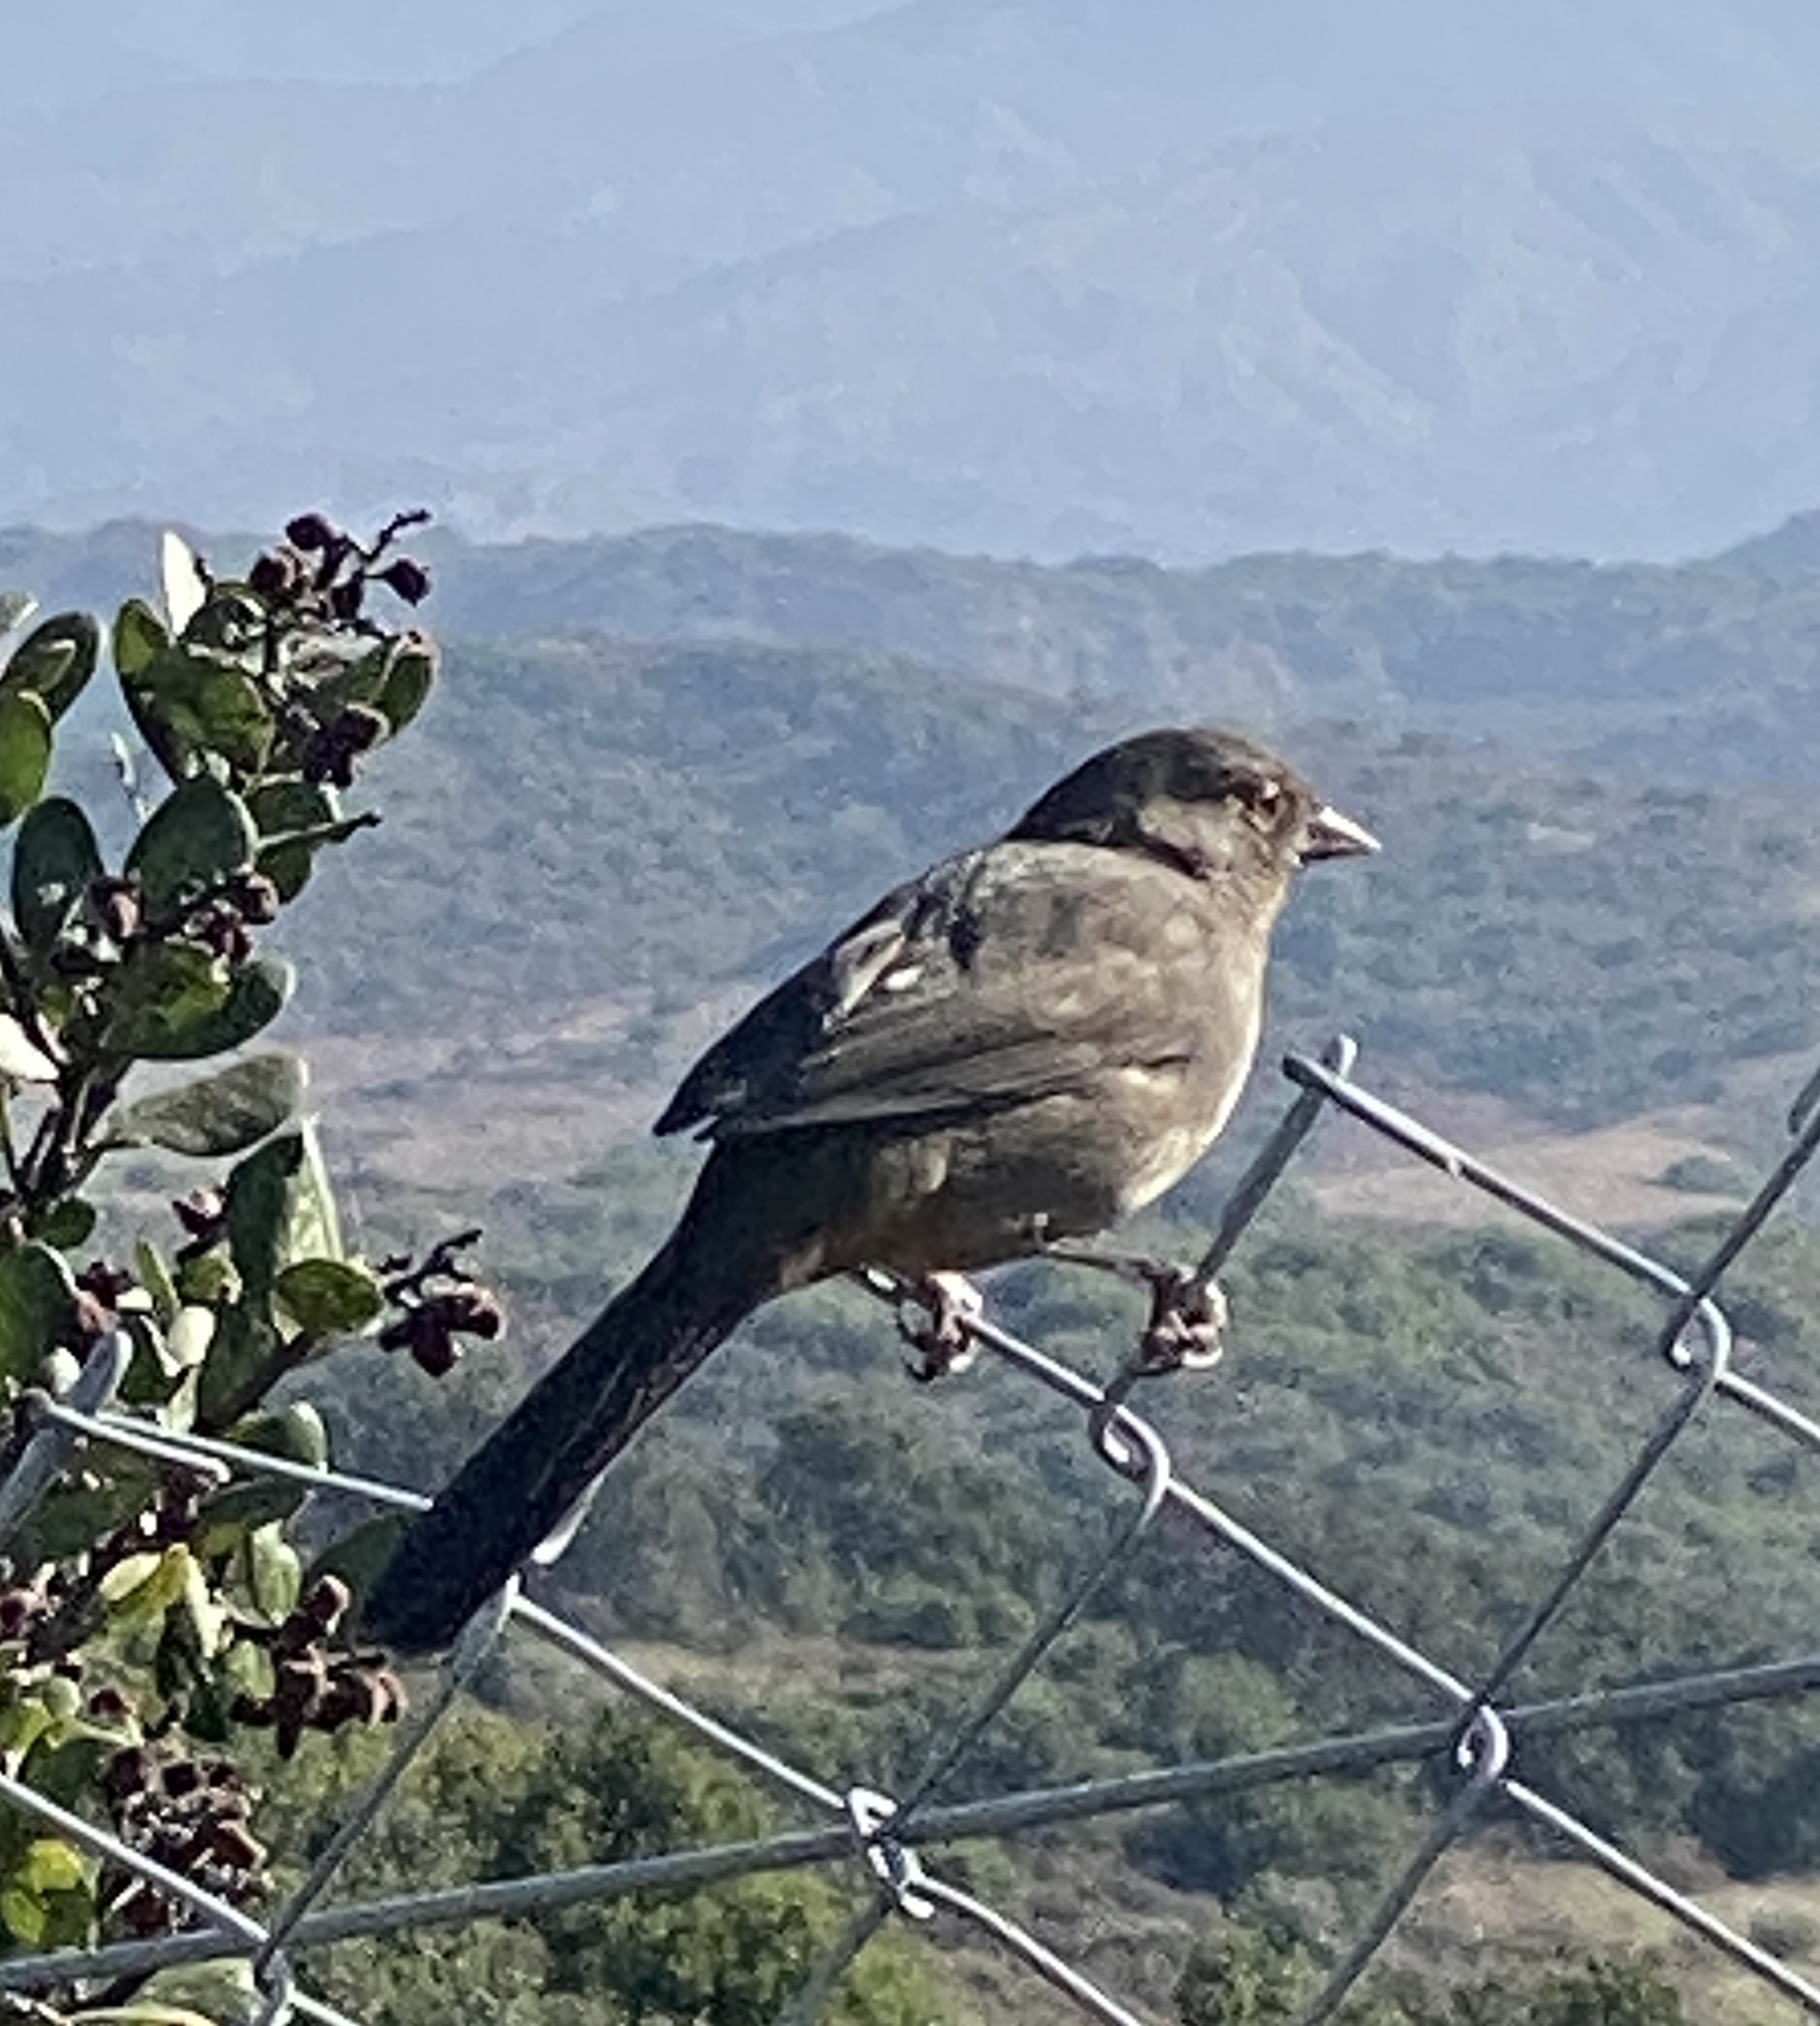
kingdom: Animalia
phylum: Chordata
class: Aves
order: Passeriformes
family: Passerellidae
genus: Melozone
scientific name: Melozone crissalis
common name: California towhee
